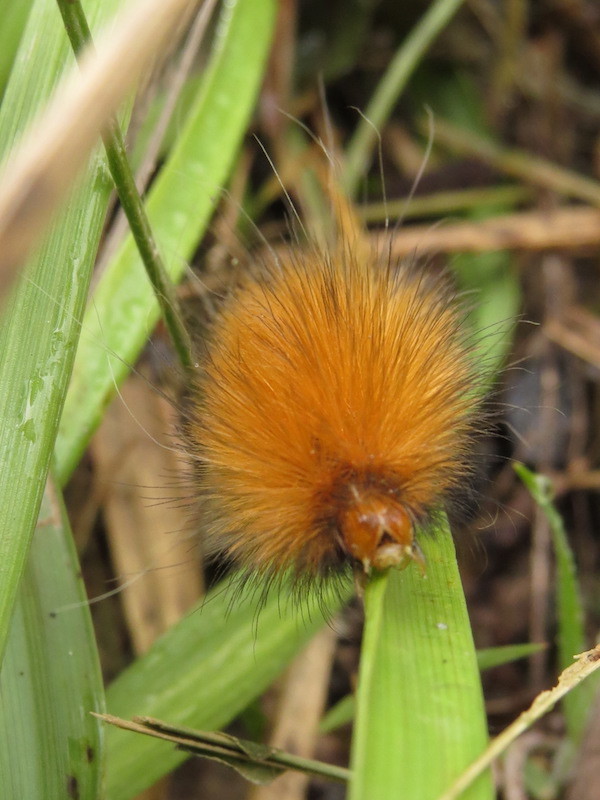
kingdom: Animalia
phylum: Arthropoda
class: Insecta
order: Lepidoptera
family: Erebidae
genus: Spilosoma
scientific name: Spilosoma virginica
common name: Virginia tiger moth
